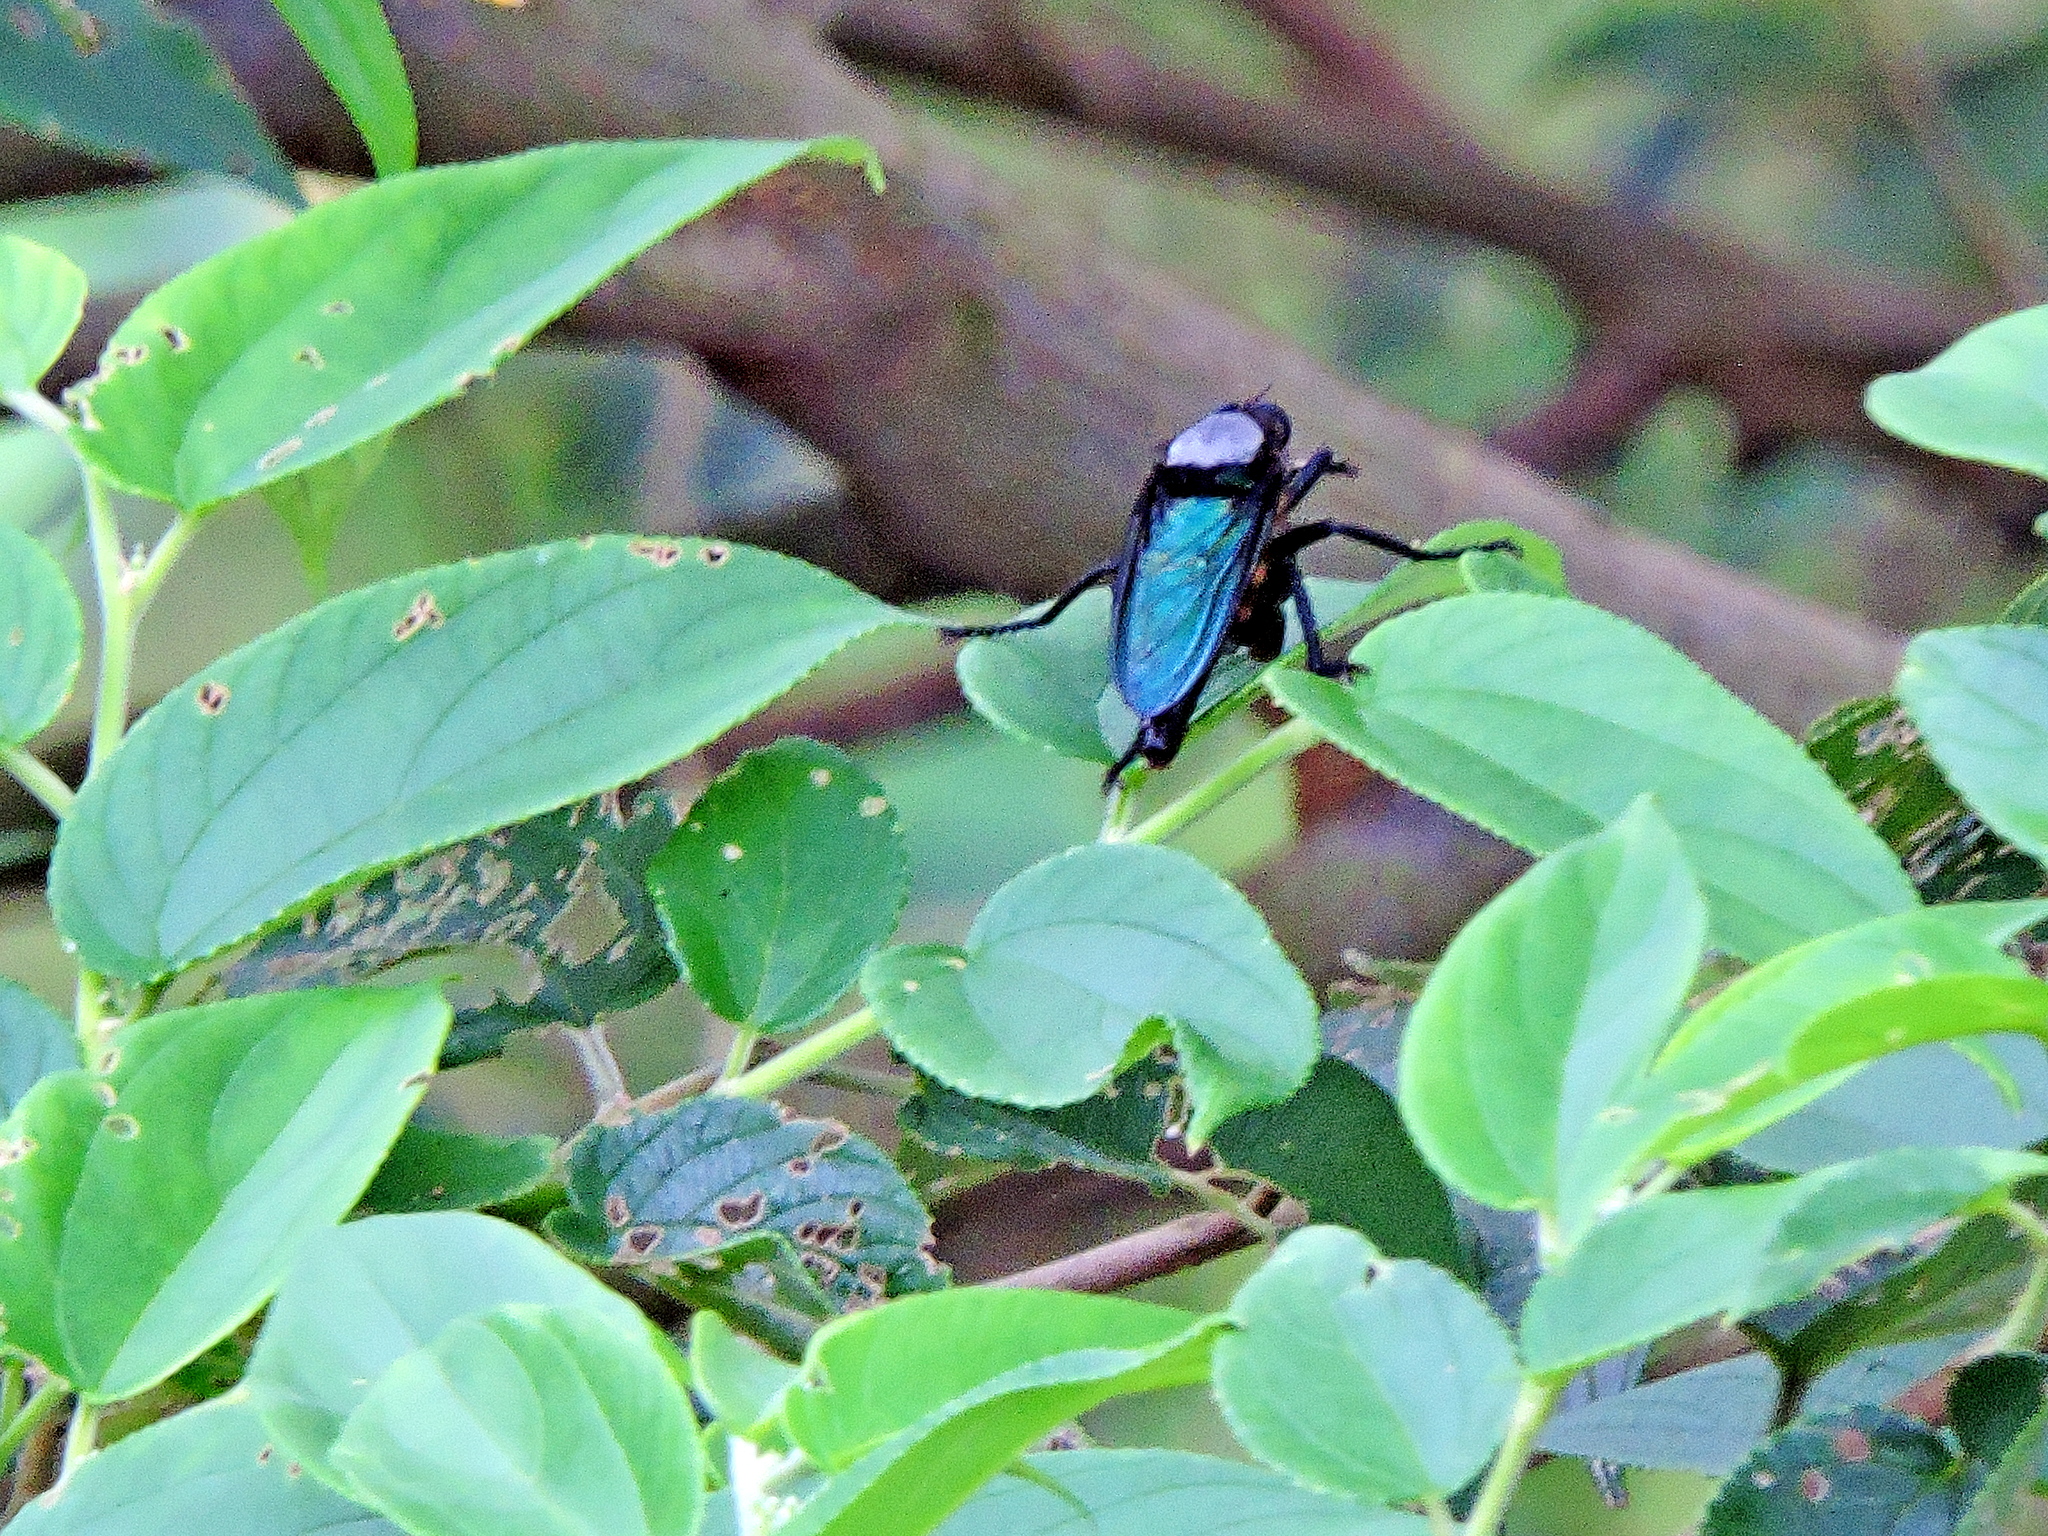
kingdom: Animalia
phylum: Arthropoda
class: Insecta
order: Diptera
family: Asilidae
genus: Microstylum
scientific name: Microstylum oberthurii
